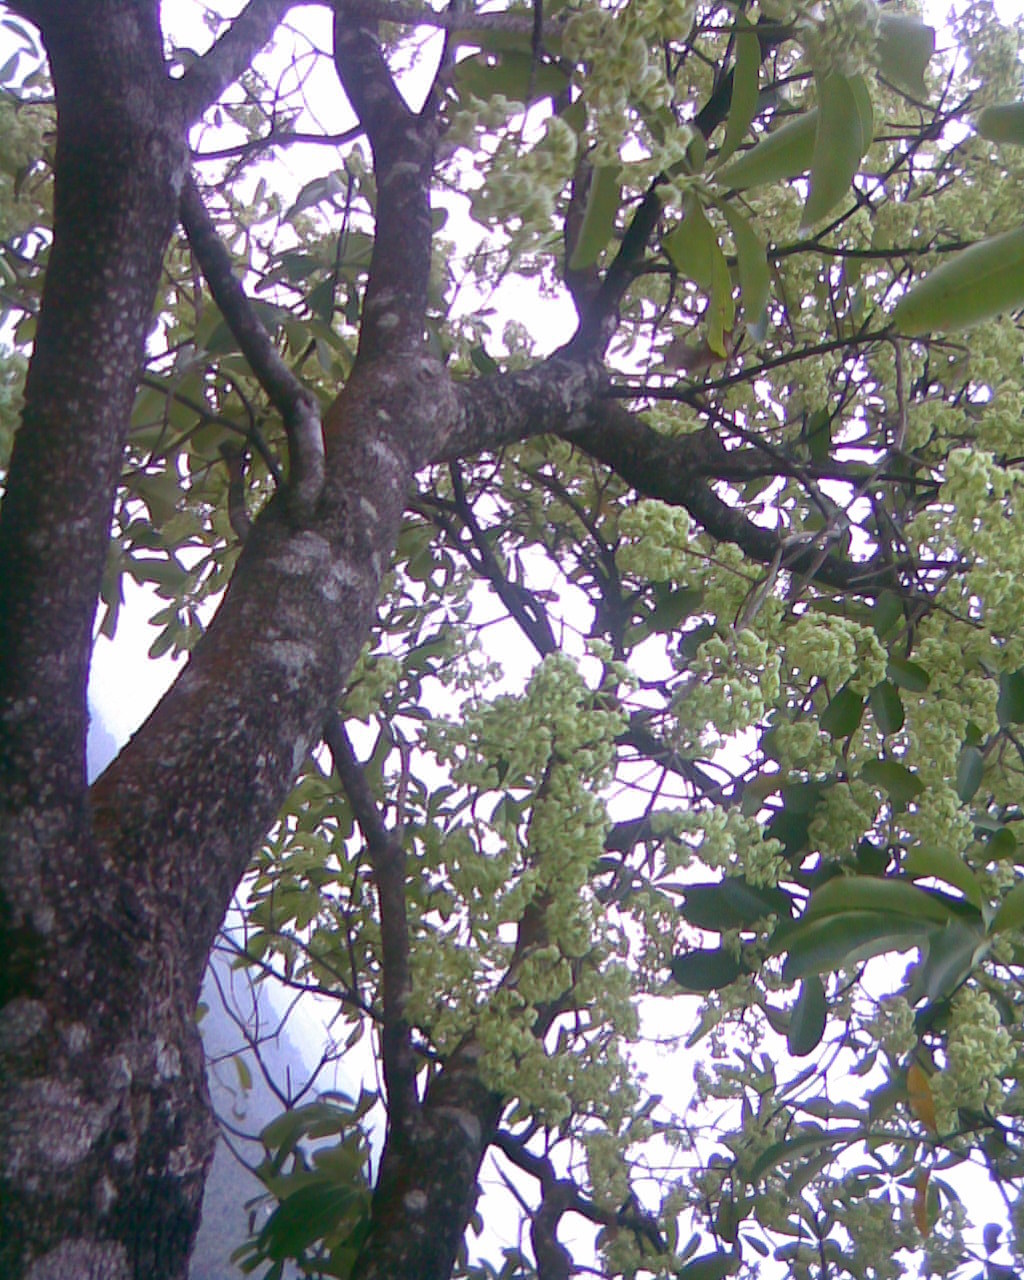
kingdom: Plantae
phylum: Tracheophyta
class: Magnoliopsida
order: Gentianales
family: Apocynaceae
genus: Alstonia
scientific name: Alstonia scholaris
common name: White cheesewood
